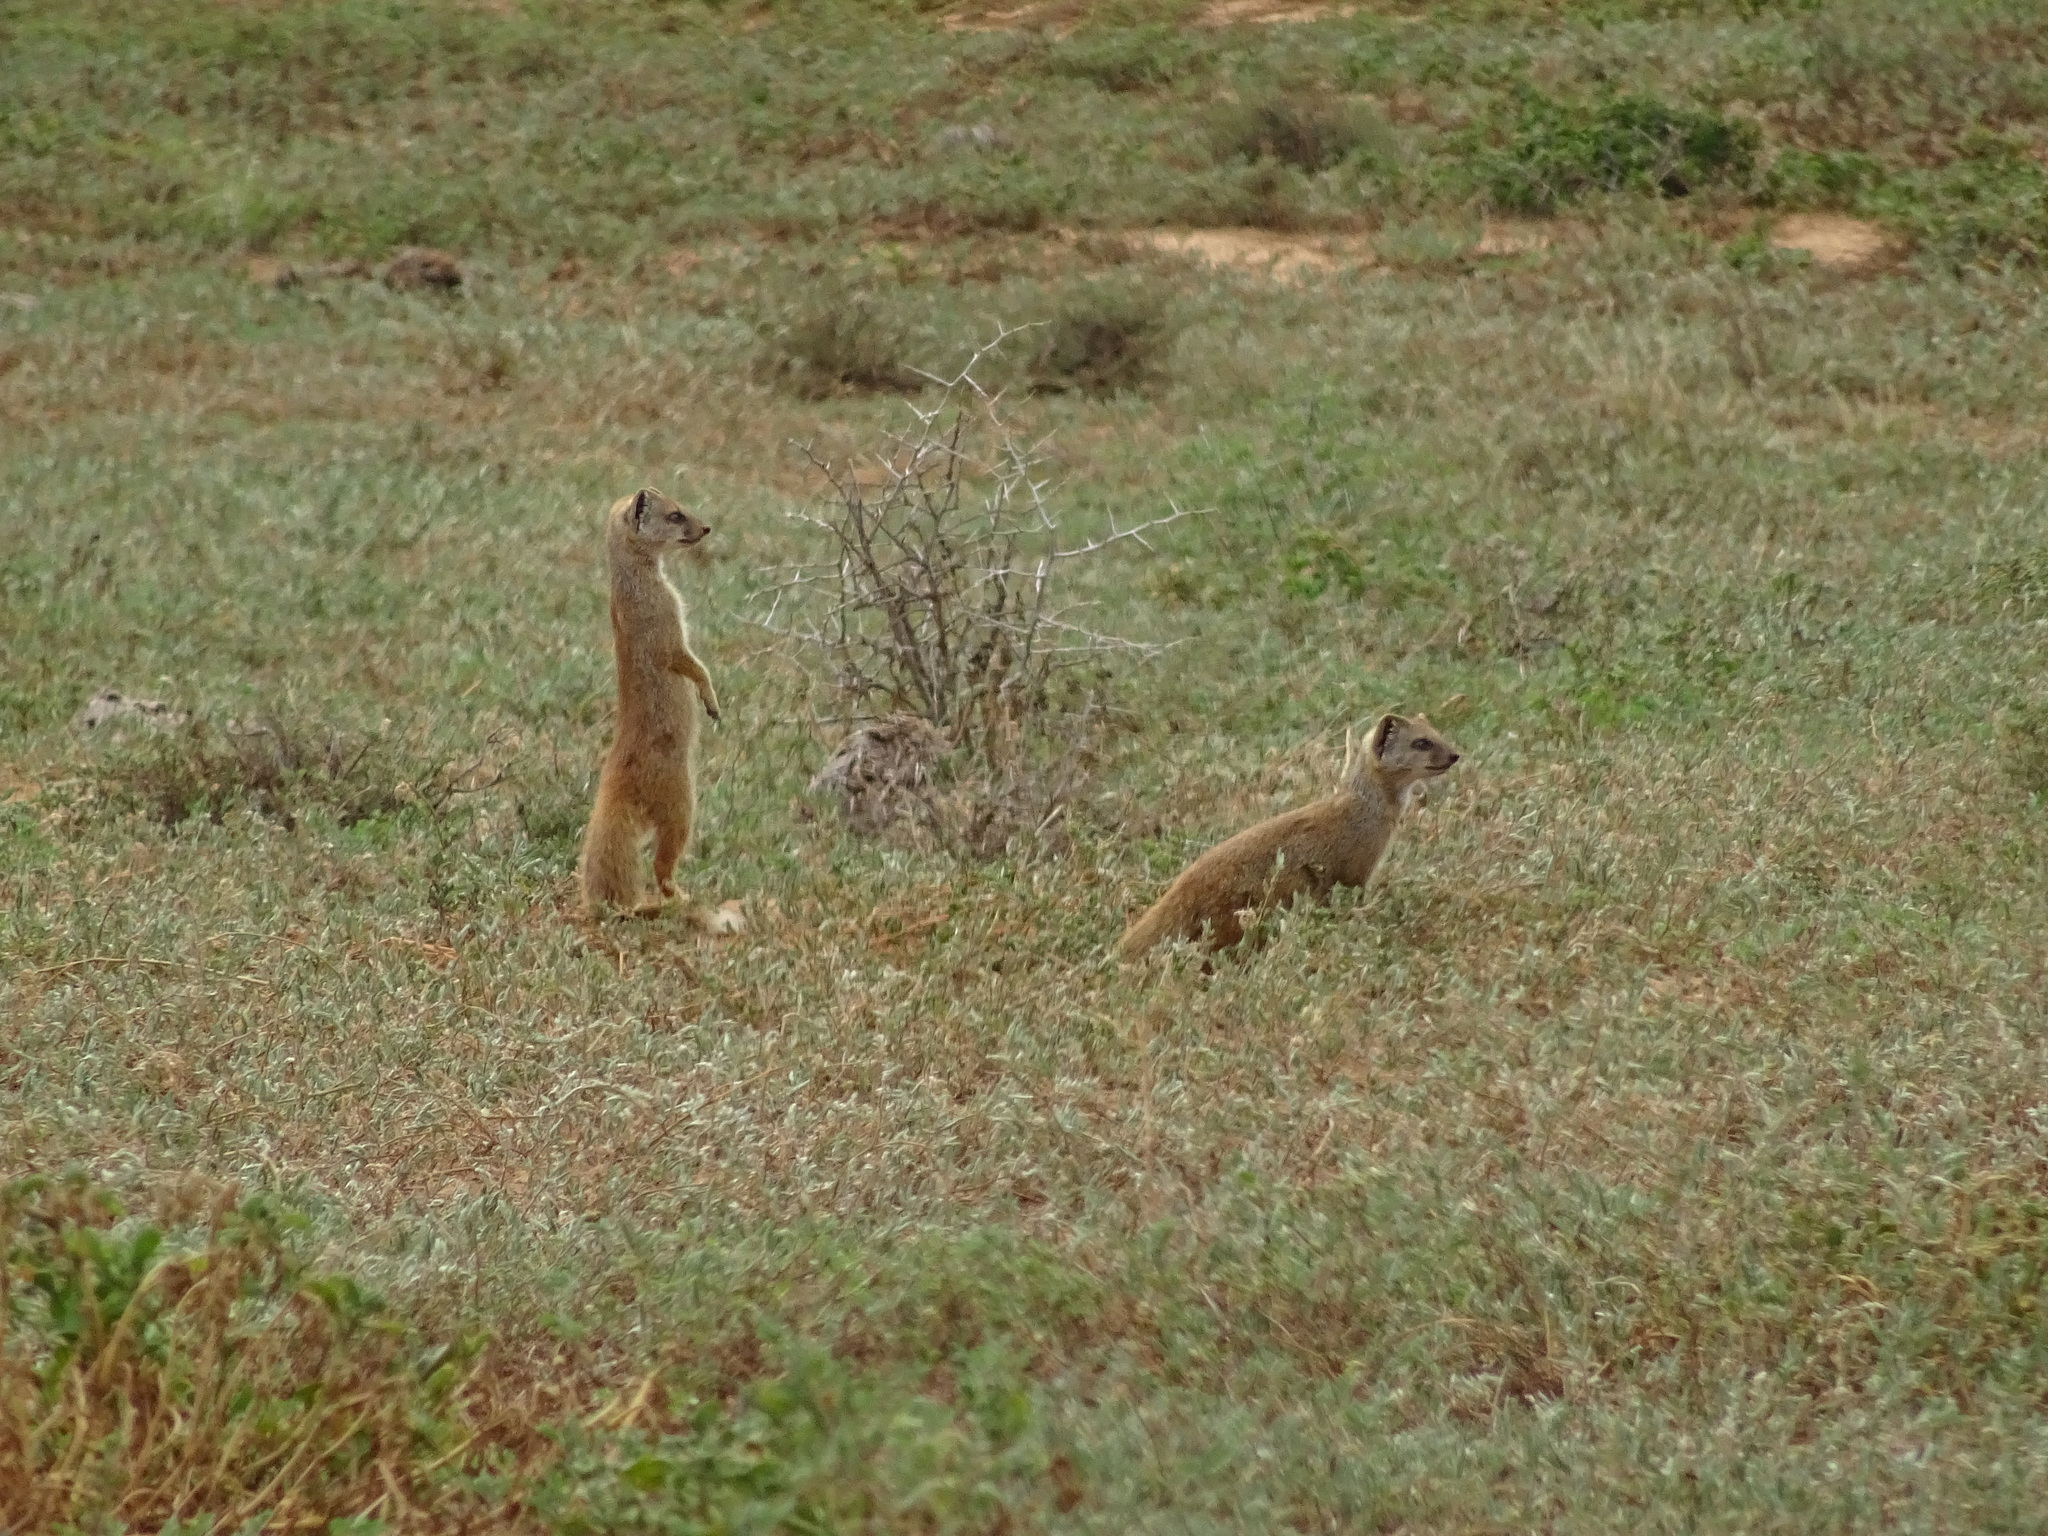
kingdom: Animalia
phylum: Chordata
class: Mammalia
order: Carnivora
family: Herpestidae
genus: Cynictis
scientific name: Cynictis penicillata
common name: Yellow mongoose
